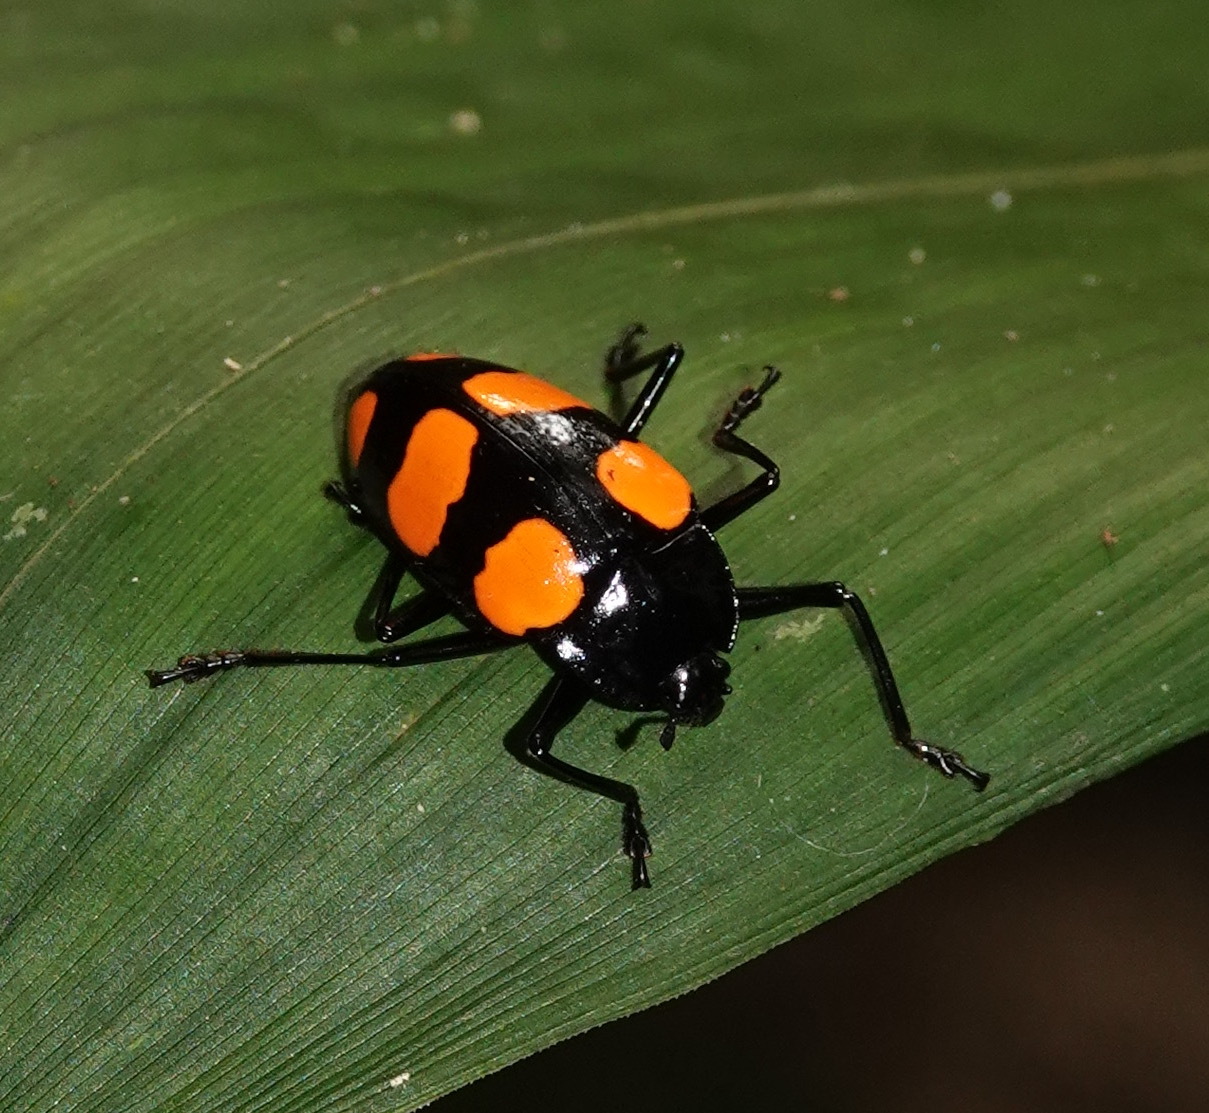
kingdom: Animalia
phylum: Arthropoda
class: Insecta
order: Coleoptera
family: Erotylidae
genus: Scaphidomorphus
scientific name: Scaphidomorphus bosci
